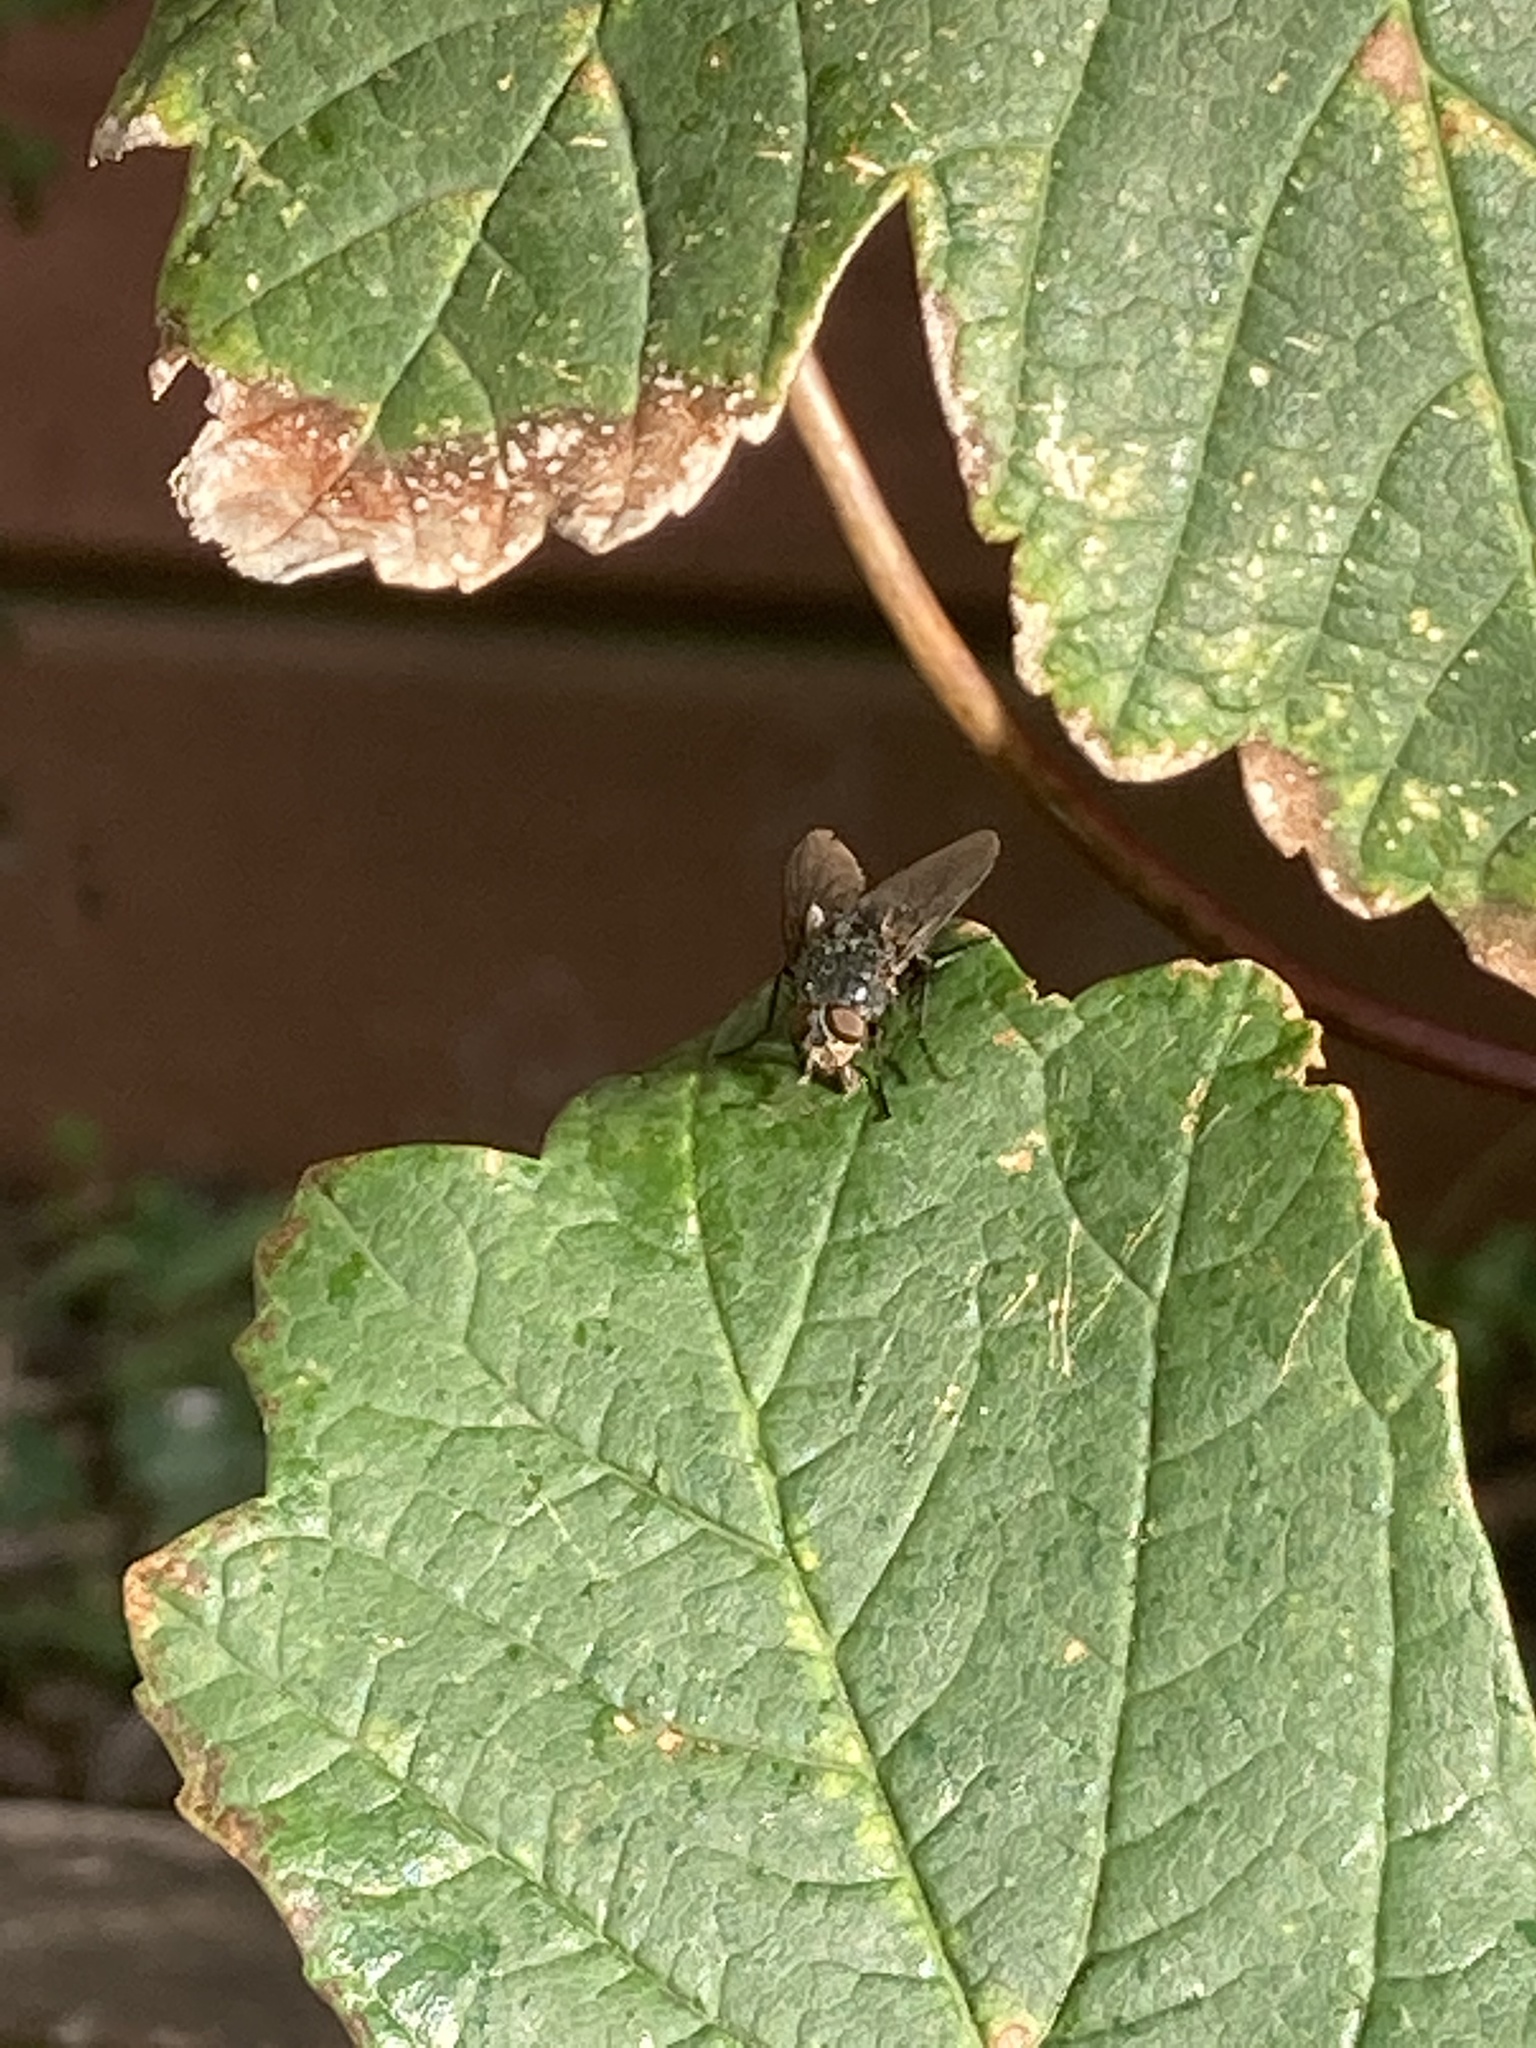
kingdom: Animalia
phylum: Arthropoda
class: Insecta
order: Diptera
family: Calliphoridae
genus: Calliphora
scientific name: Calliphora vicina
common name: Common blow flie
